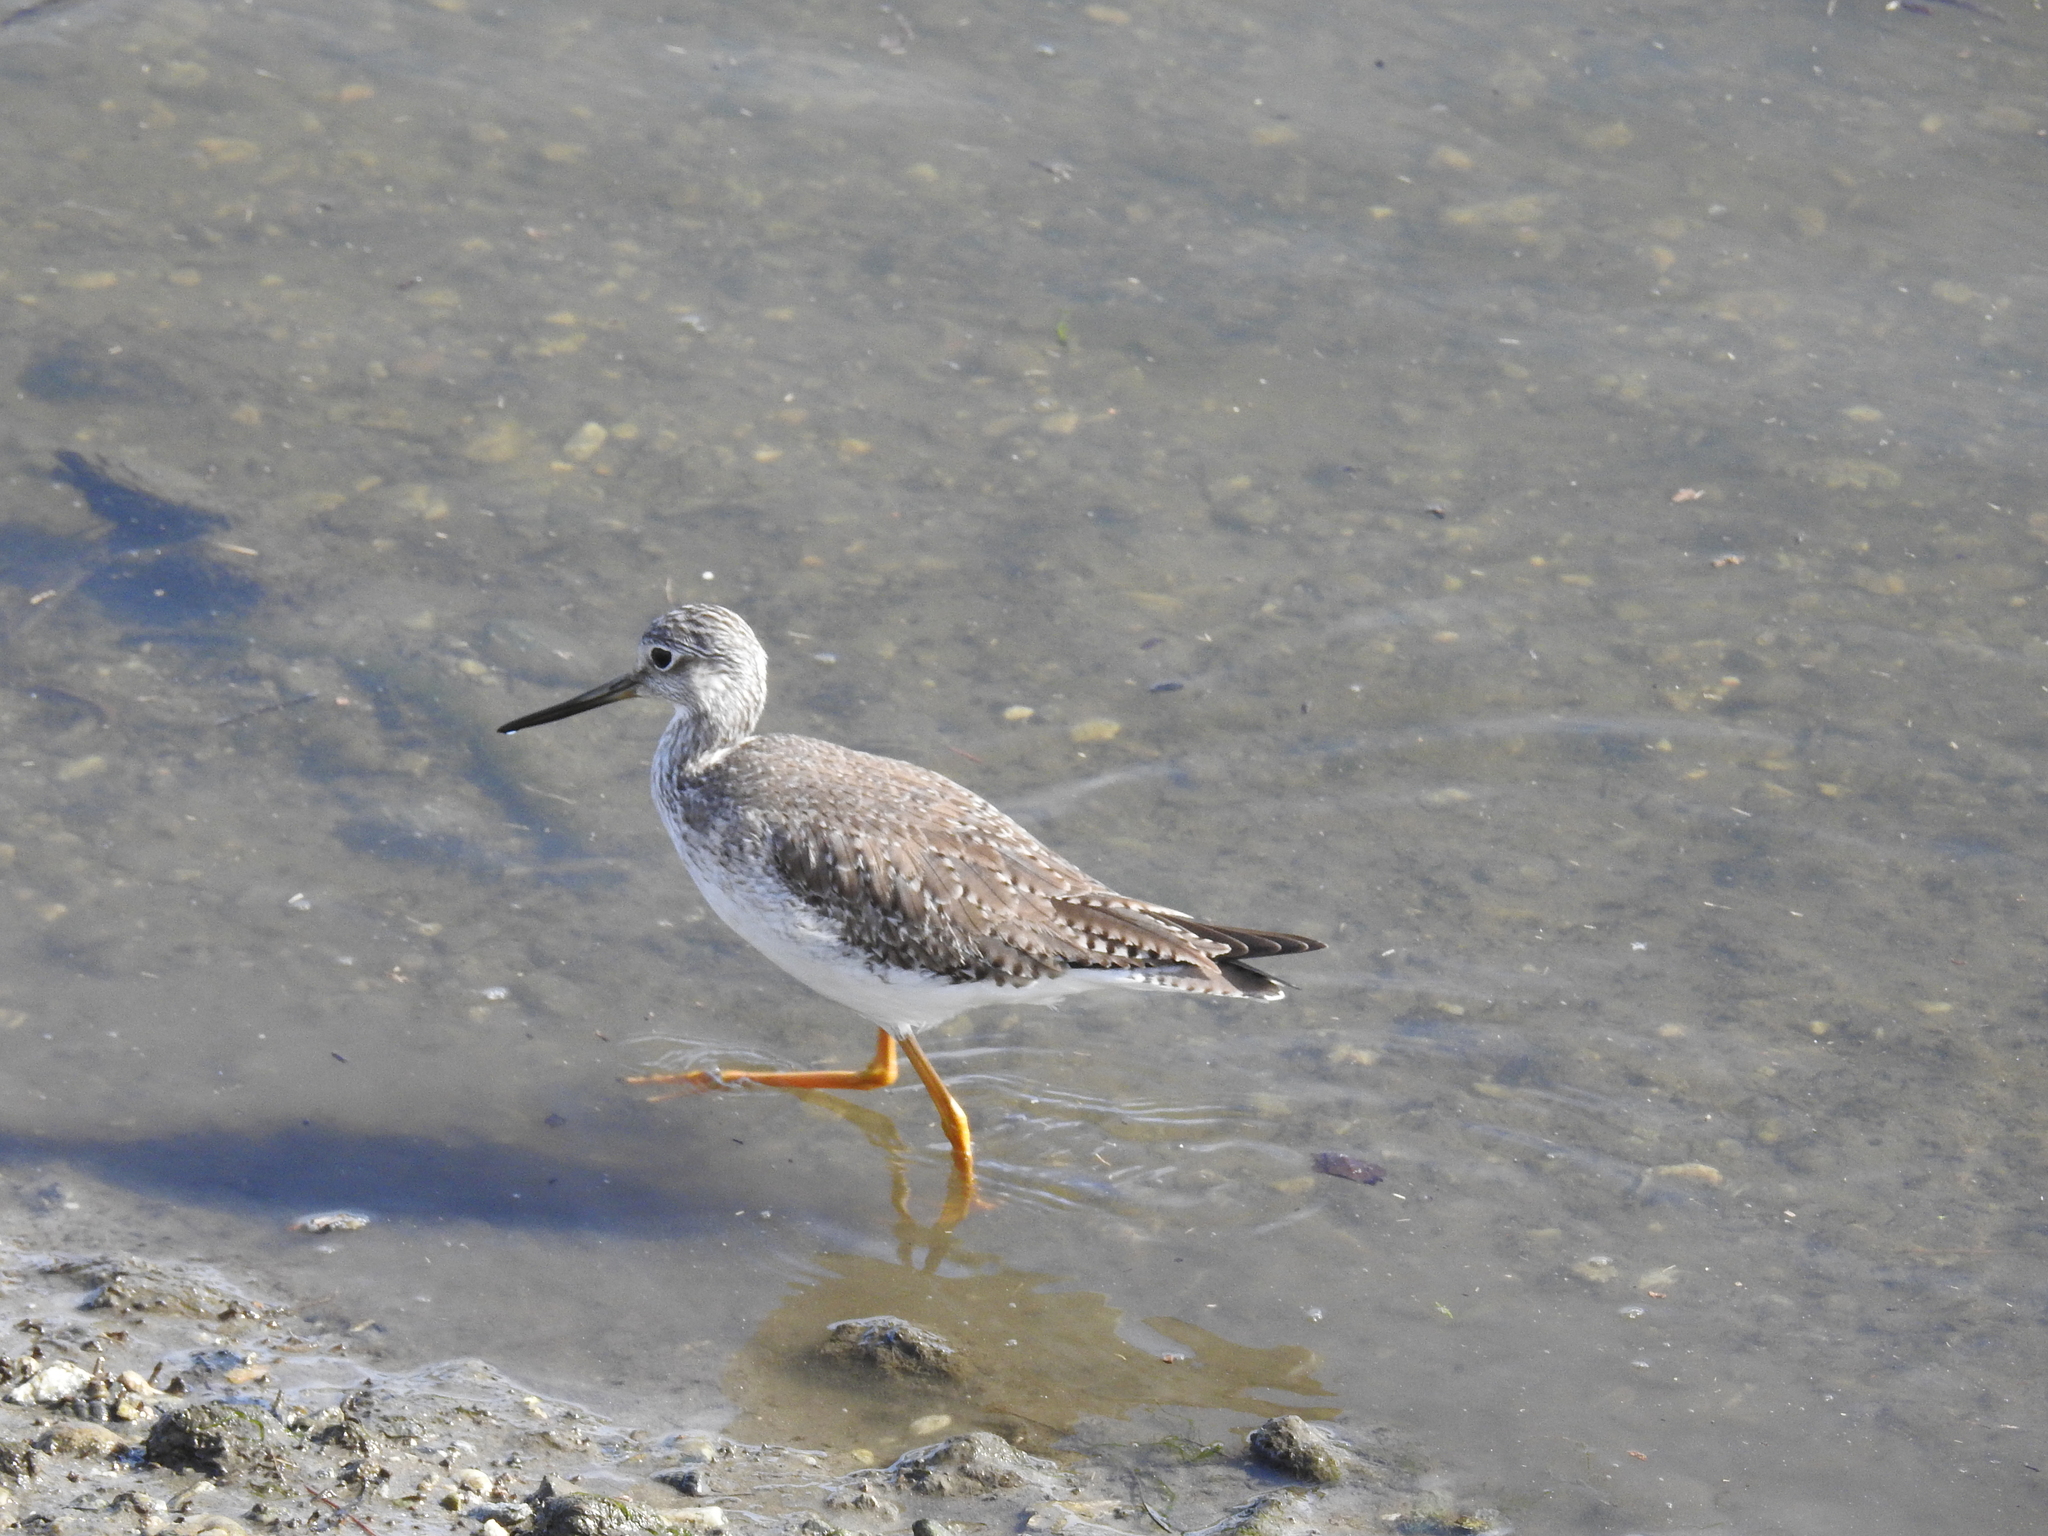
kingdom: Animalia
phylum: Chordata
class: Aves
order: Charadriiformes
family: Scolopacidae
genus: Tringa
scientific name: Tringa melanoleuca
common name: Greater yellowlegs
